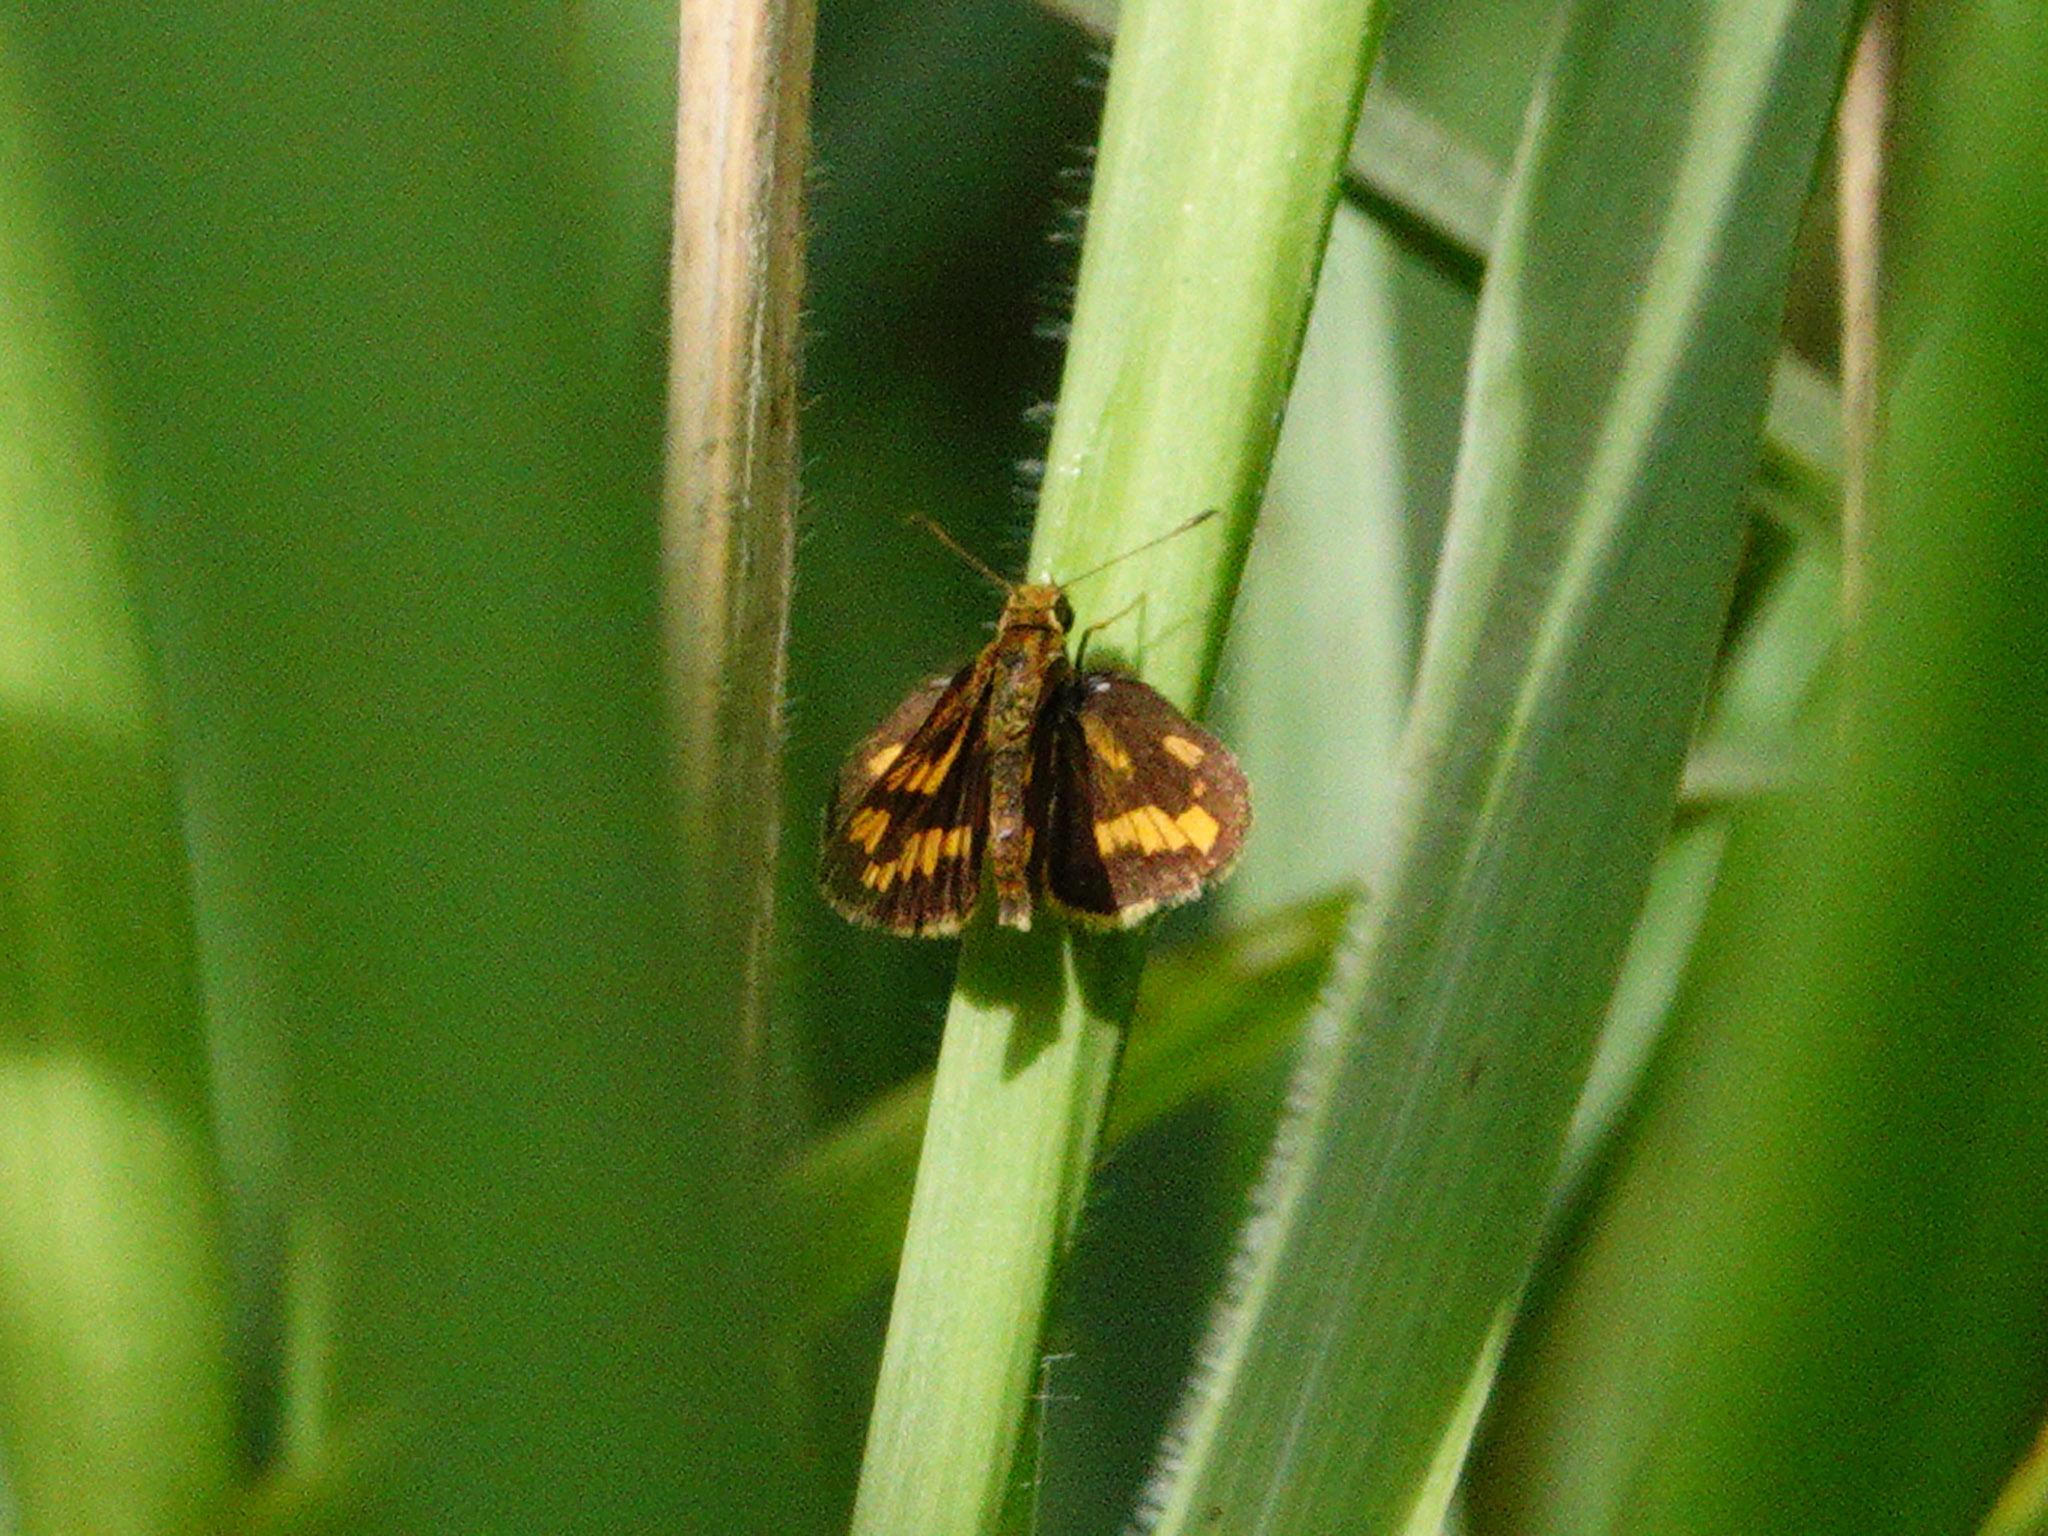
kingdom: Animalia
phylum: Arthropoda
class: Insecta
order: Lepidoptera
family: Hesperiidae
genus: Potanthus
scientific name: Potanthus omaha
